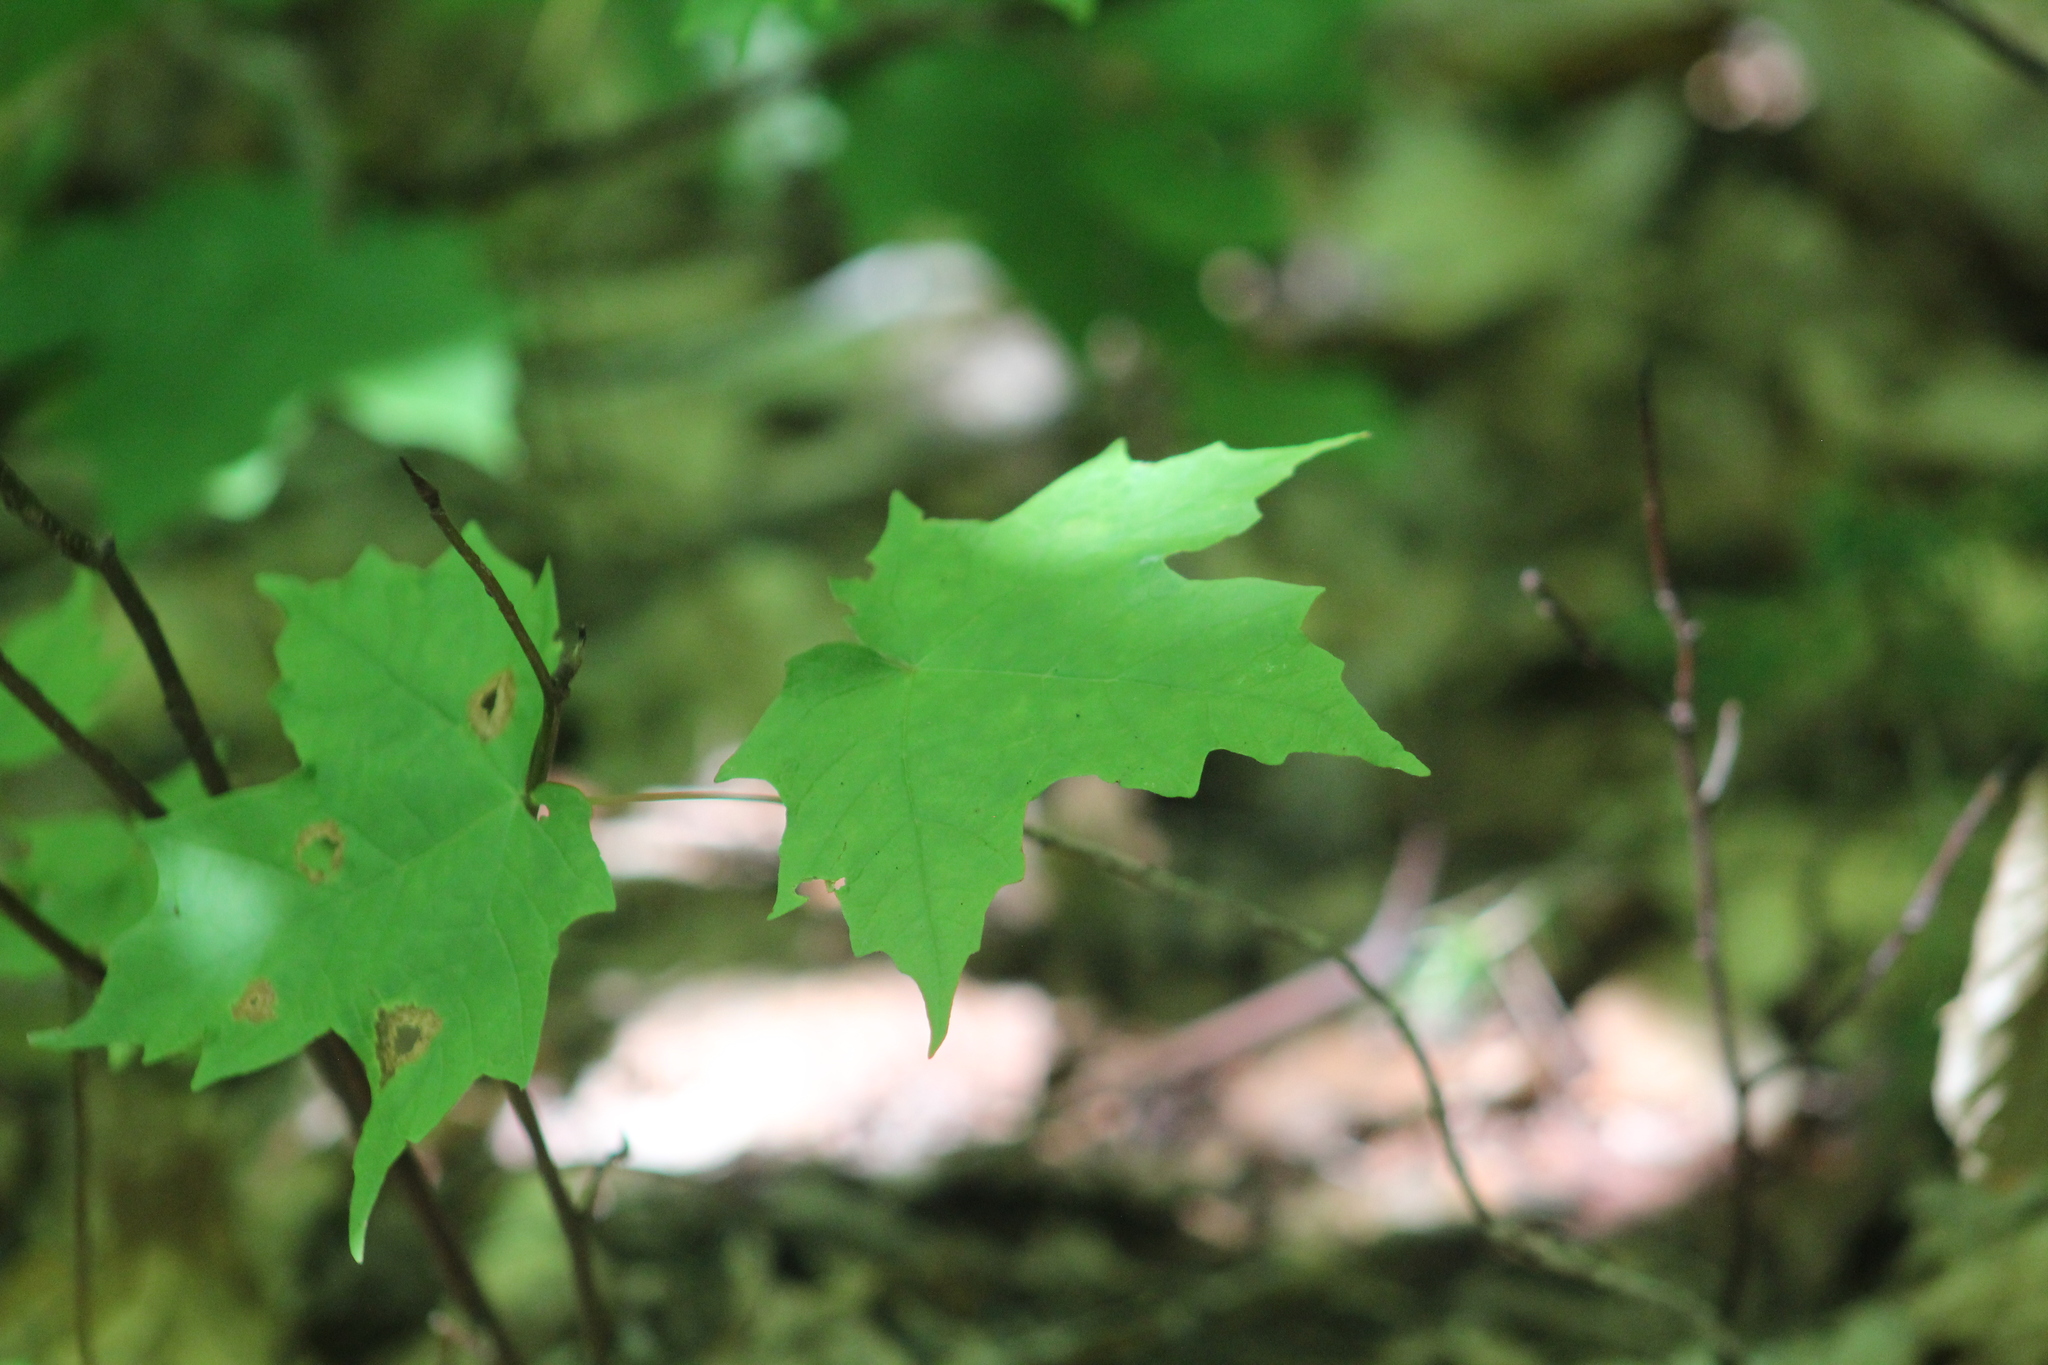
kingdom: Plantae
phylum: Tracheophyta
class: Magnoliopsida
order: Sapindales
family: Sapindaceae
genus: Acer
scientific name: Acer saccharum
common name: Sugar maple
